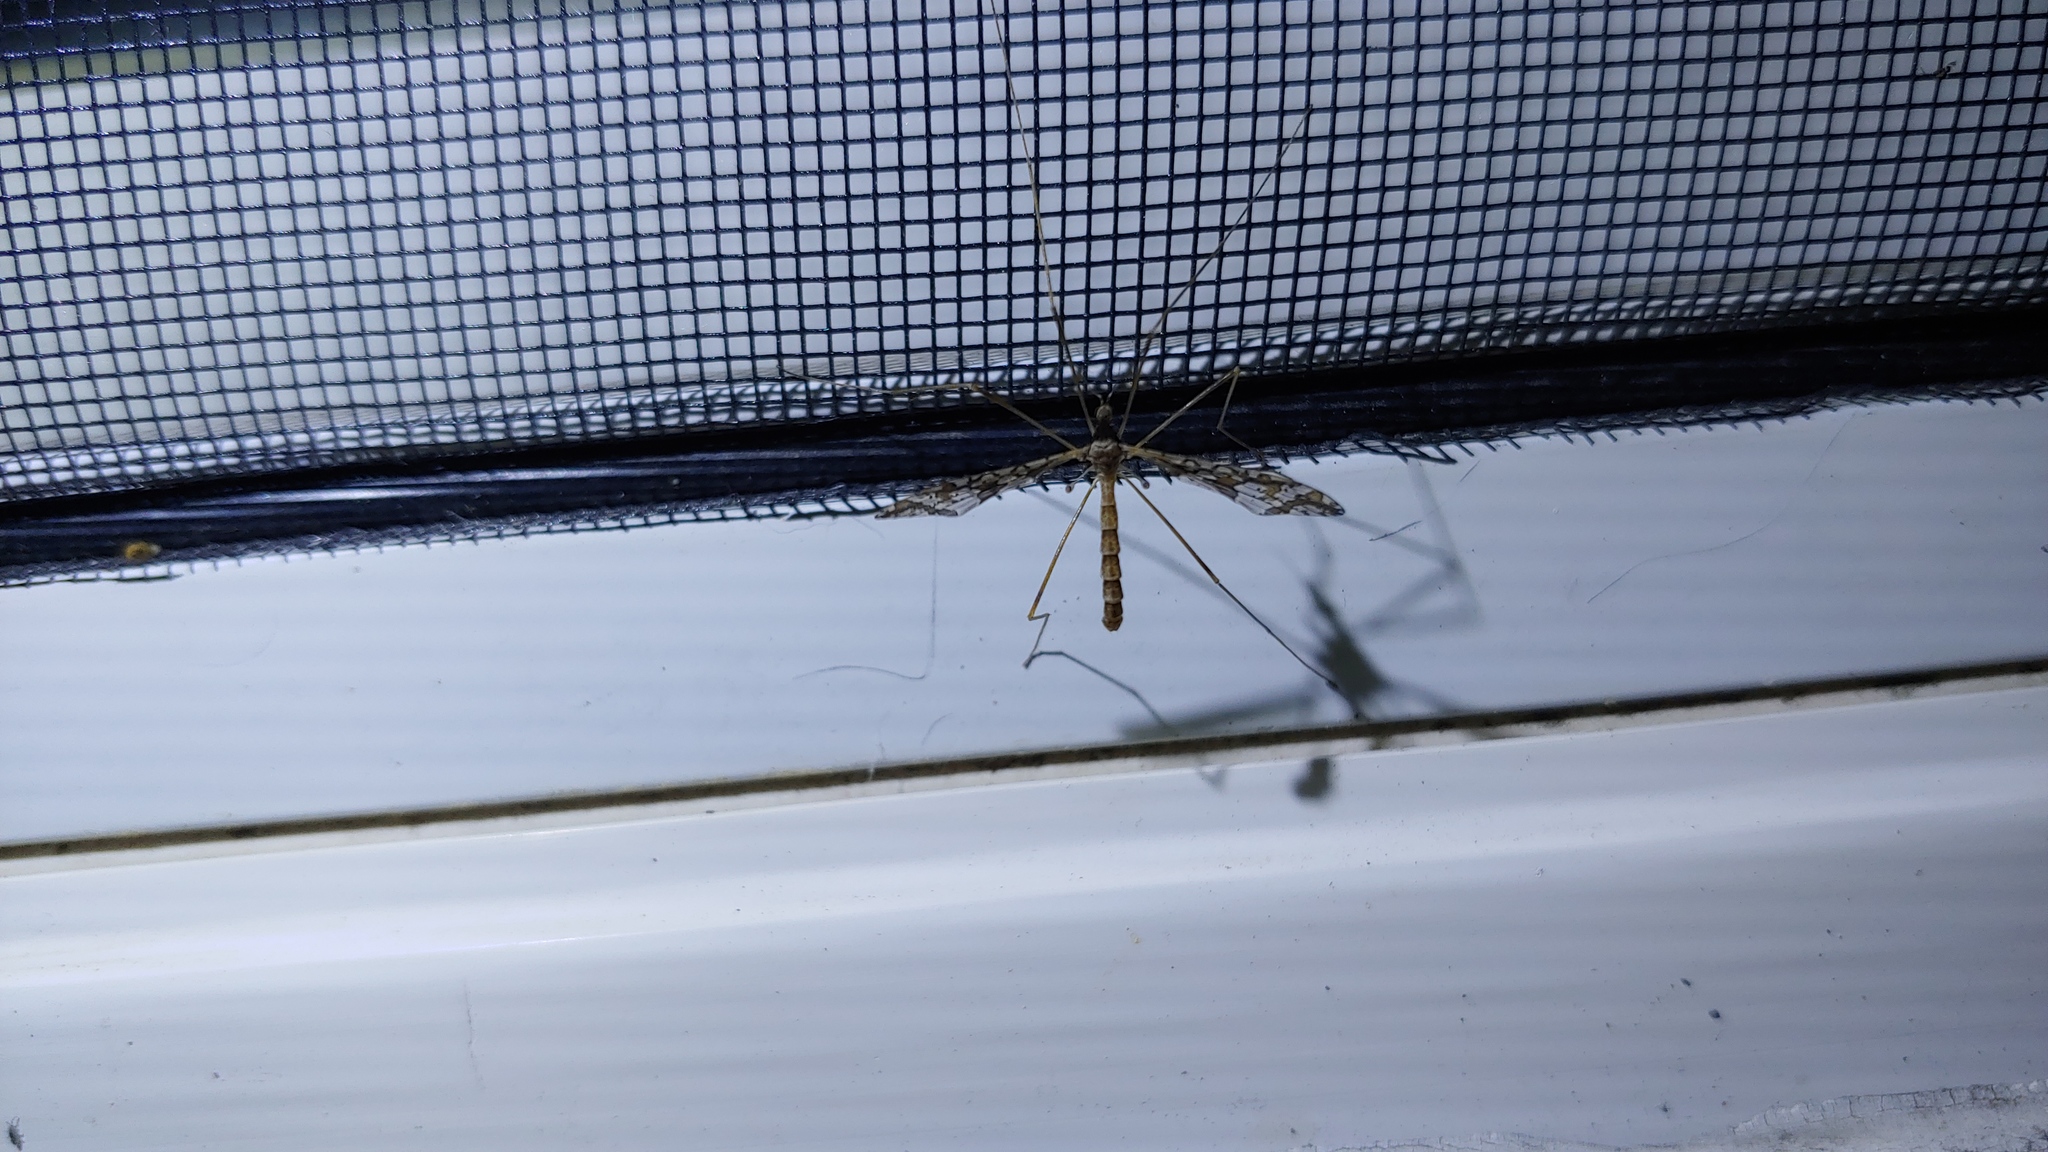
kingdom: Animalia
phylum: Arthropoda
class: Insecta
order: Diptera
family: Limoniidae
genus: Epiphragma
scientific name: Epiphragma solatrix
